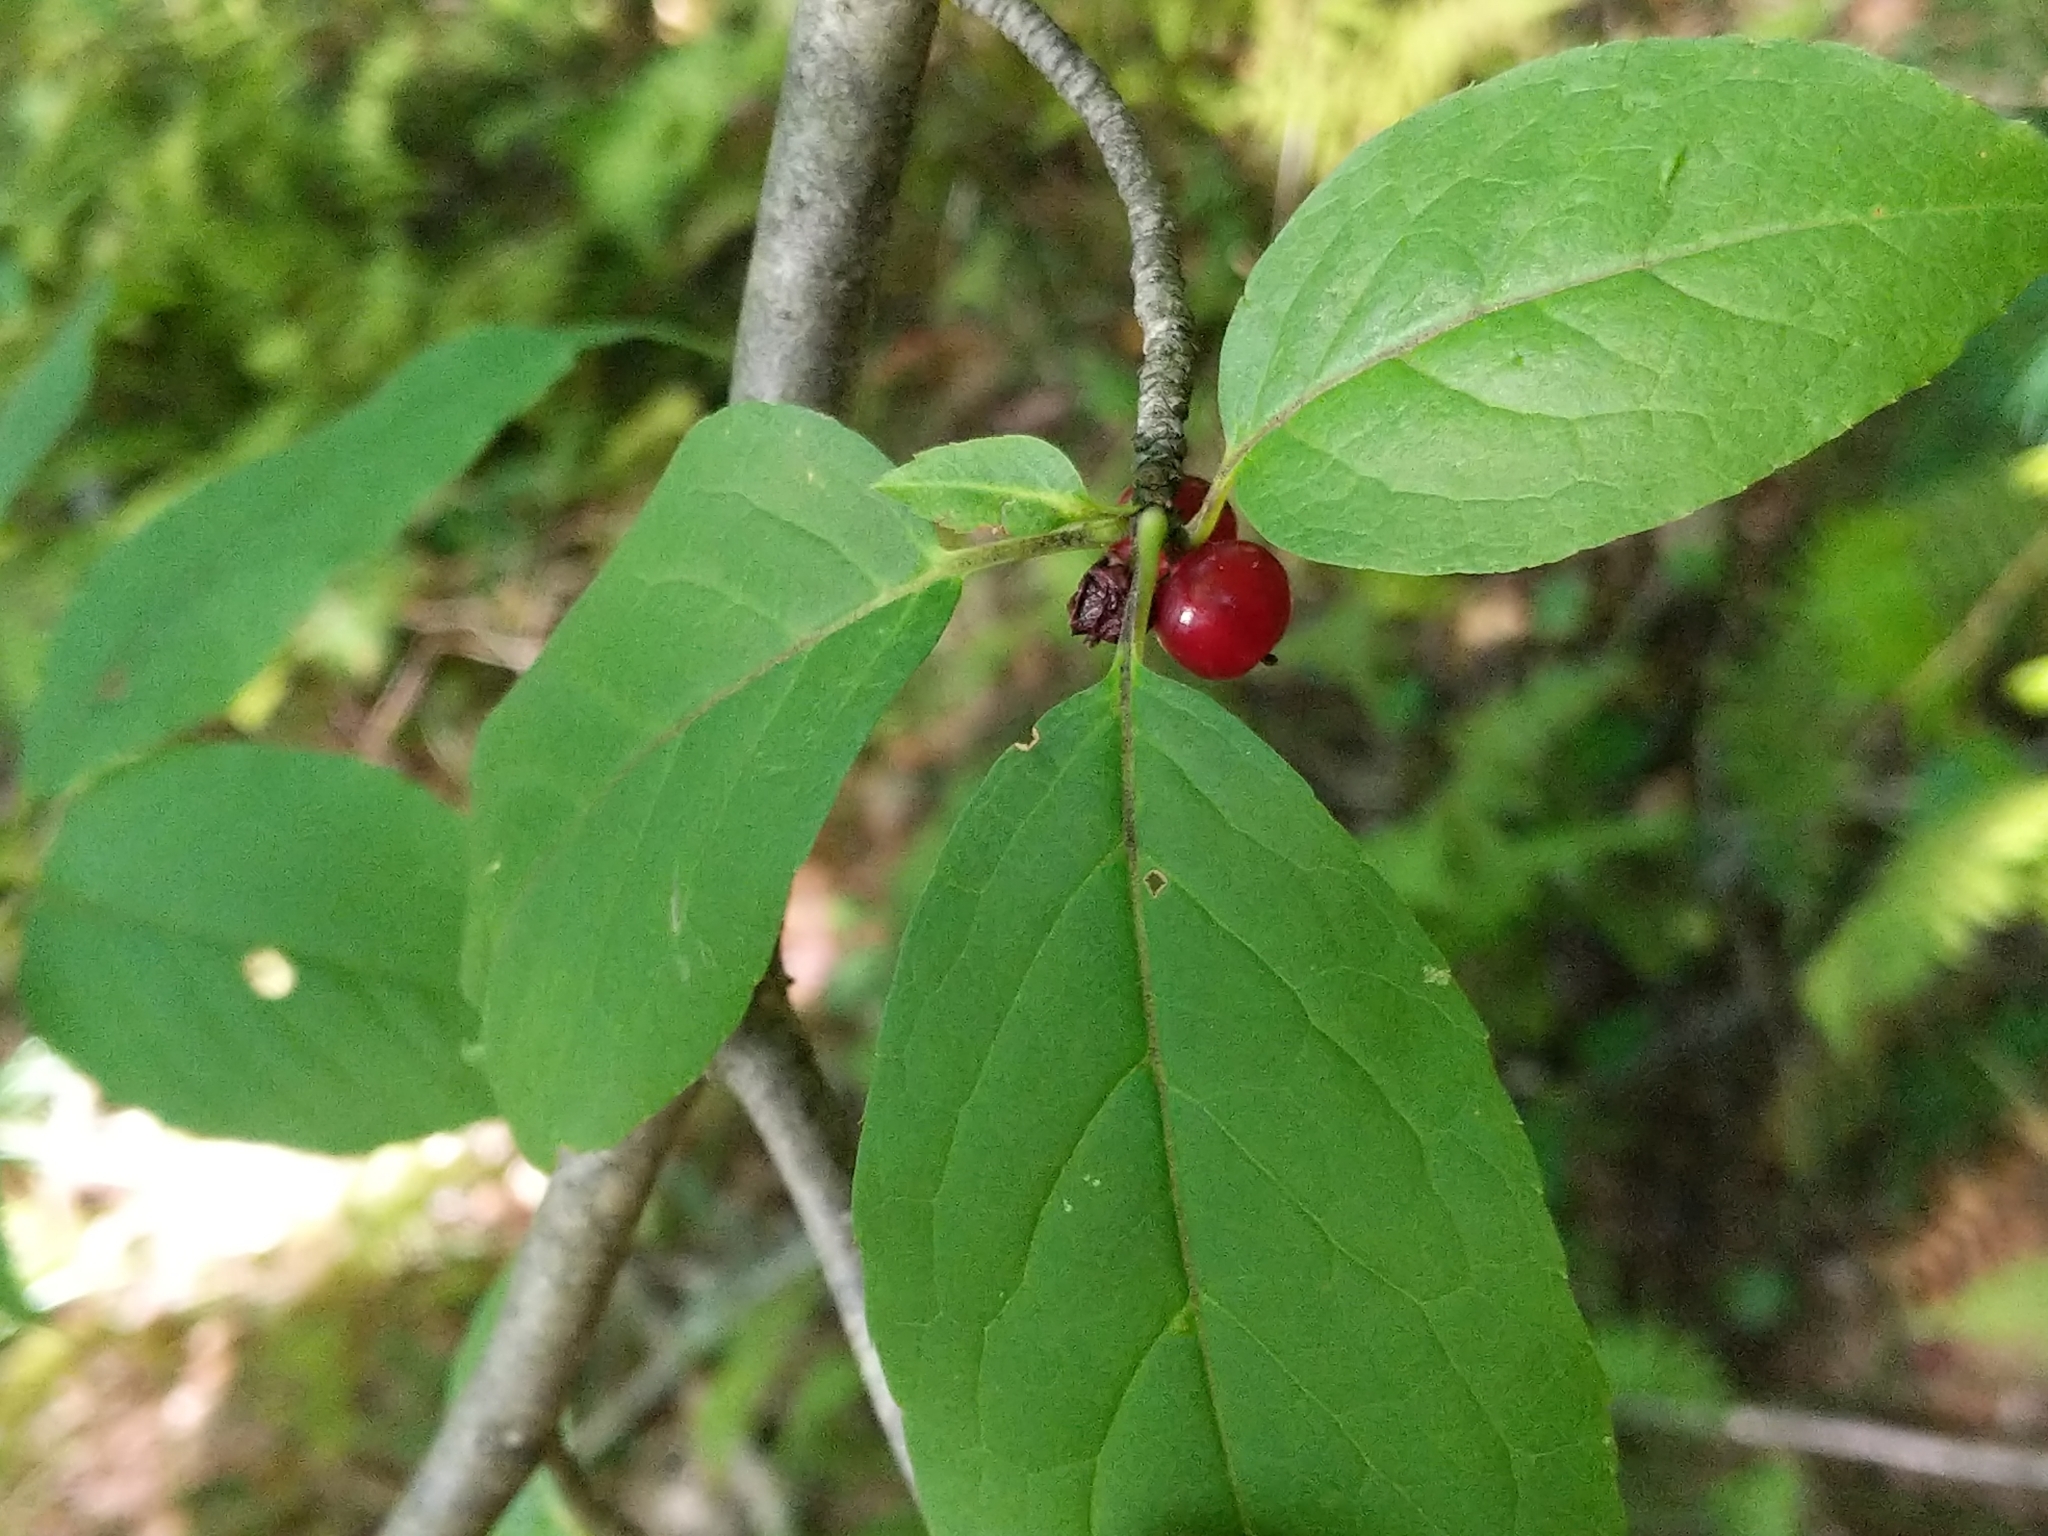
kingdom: Plantae
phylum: Tracheophyta
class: Magnoliopsida
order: Aquifoliales
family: Aquifoliaceae
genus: Ilex
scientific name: Ilex montana
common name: Mountain winterberry
